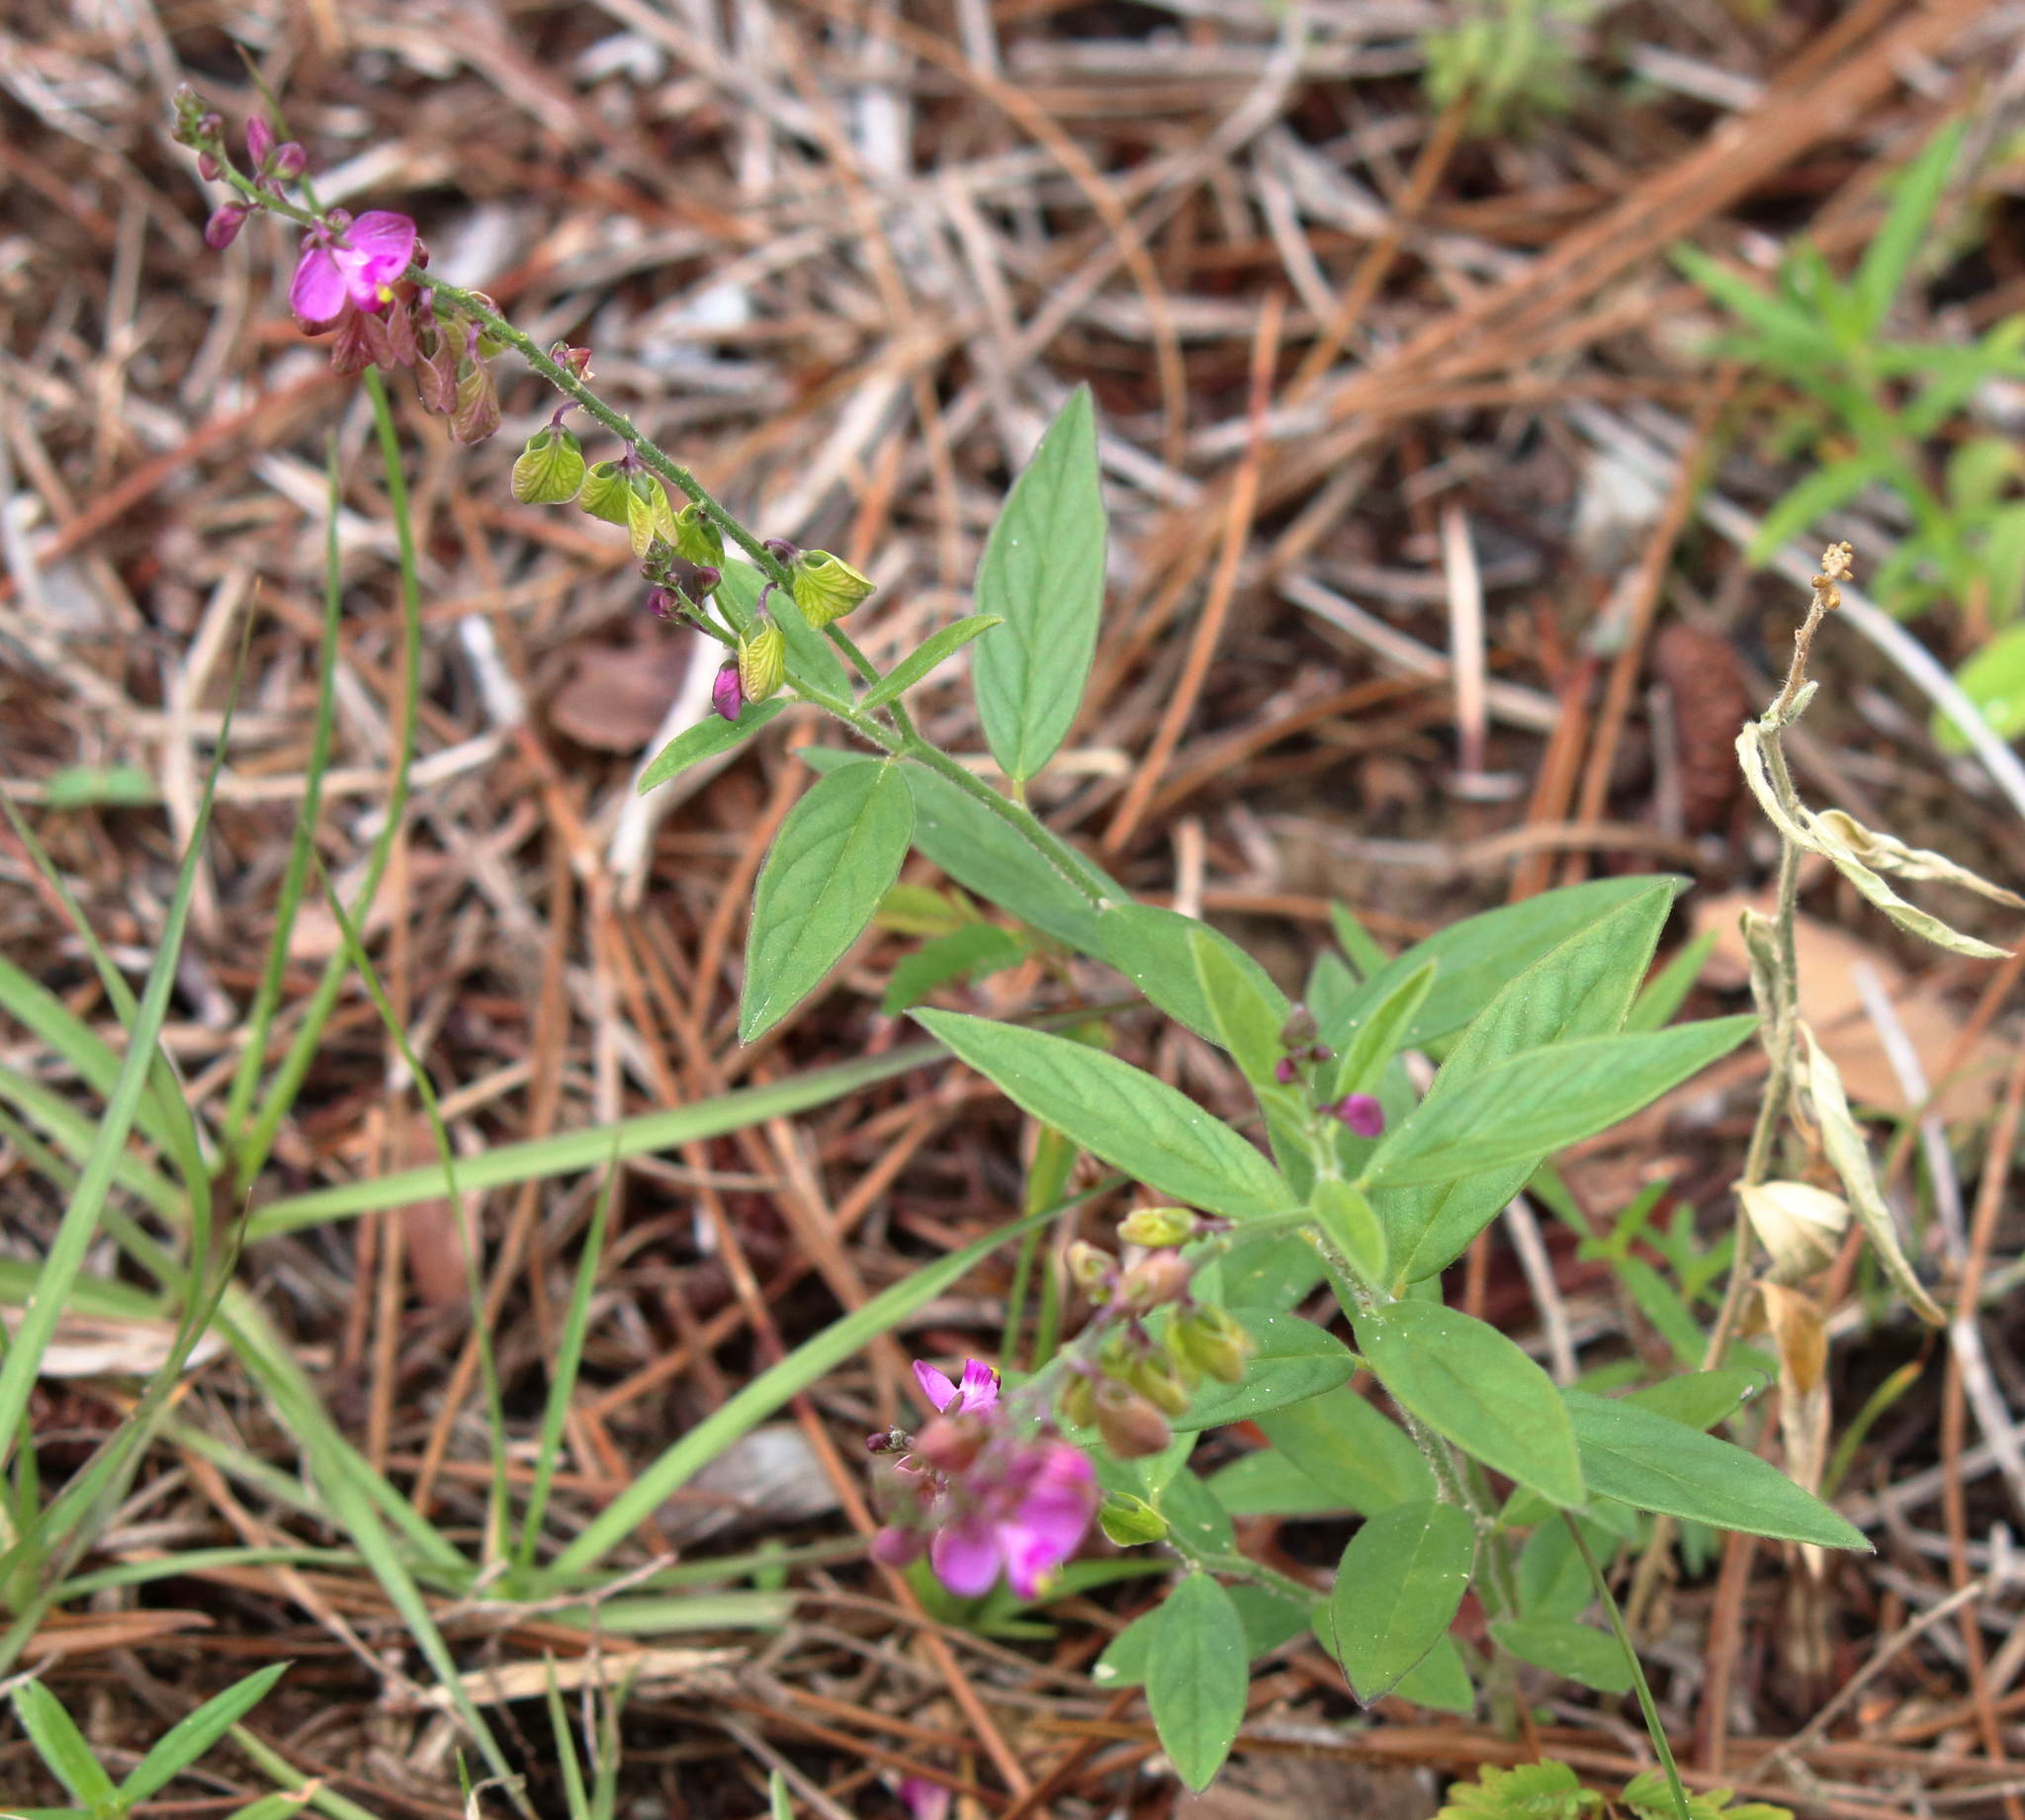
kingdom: Plantae
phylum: Tracheophyta
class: Magnoliopsida
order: Fabales
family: Polygalaceae
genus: Asemeia
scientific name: Asemeia grandiflora
